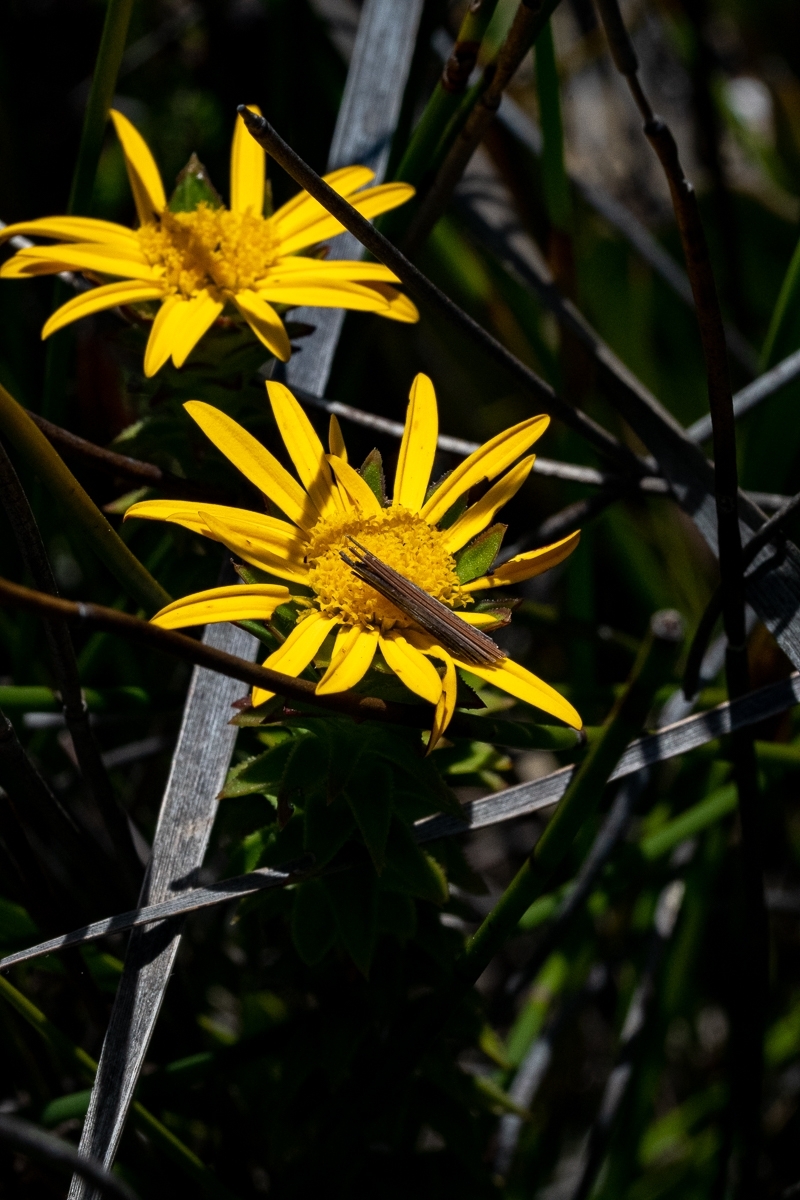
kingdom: Plantae
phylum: Tracheophyta
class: Magnoliopsida
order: Asterales
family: Asteraceae
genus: Oedera
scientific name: Oedera imbricata
